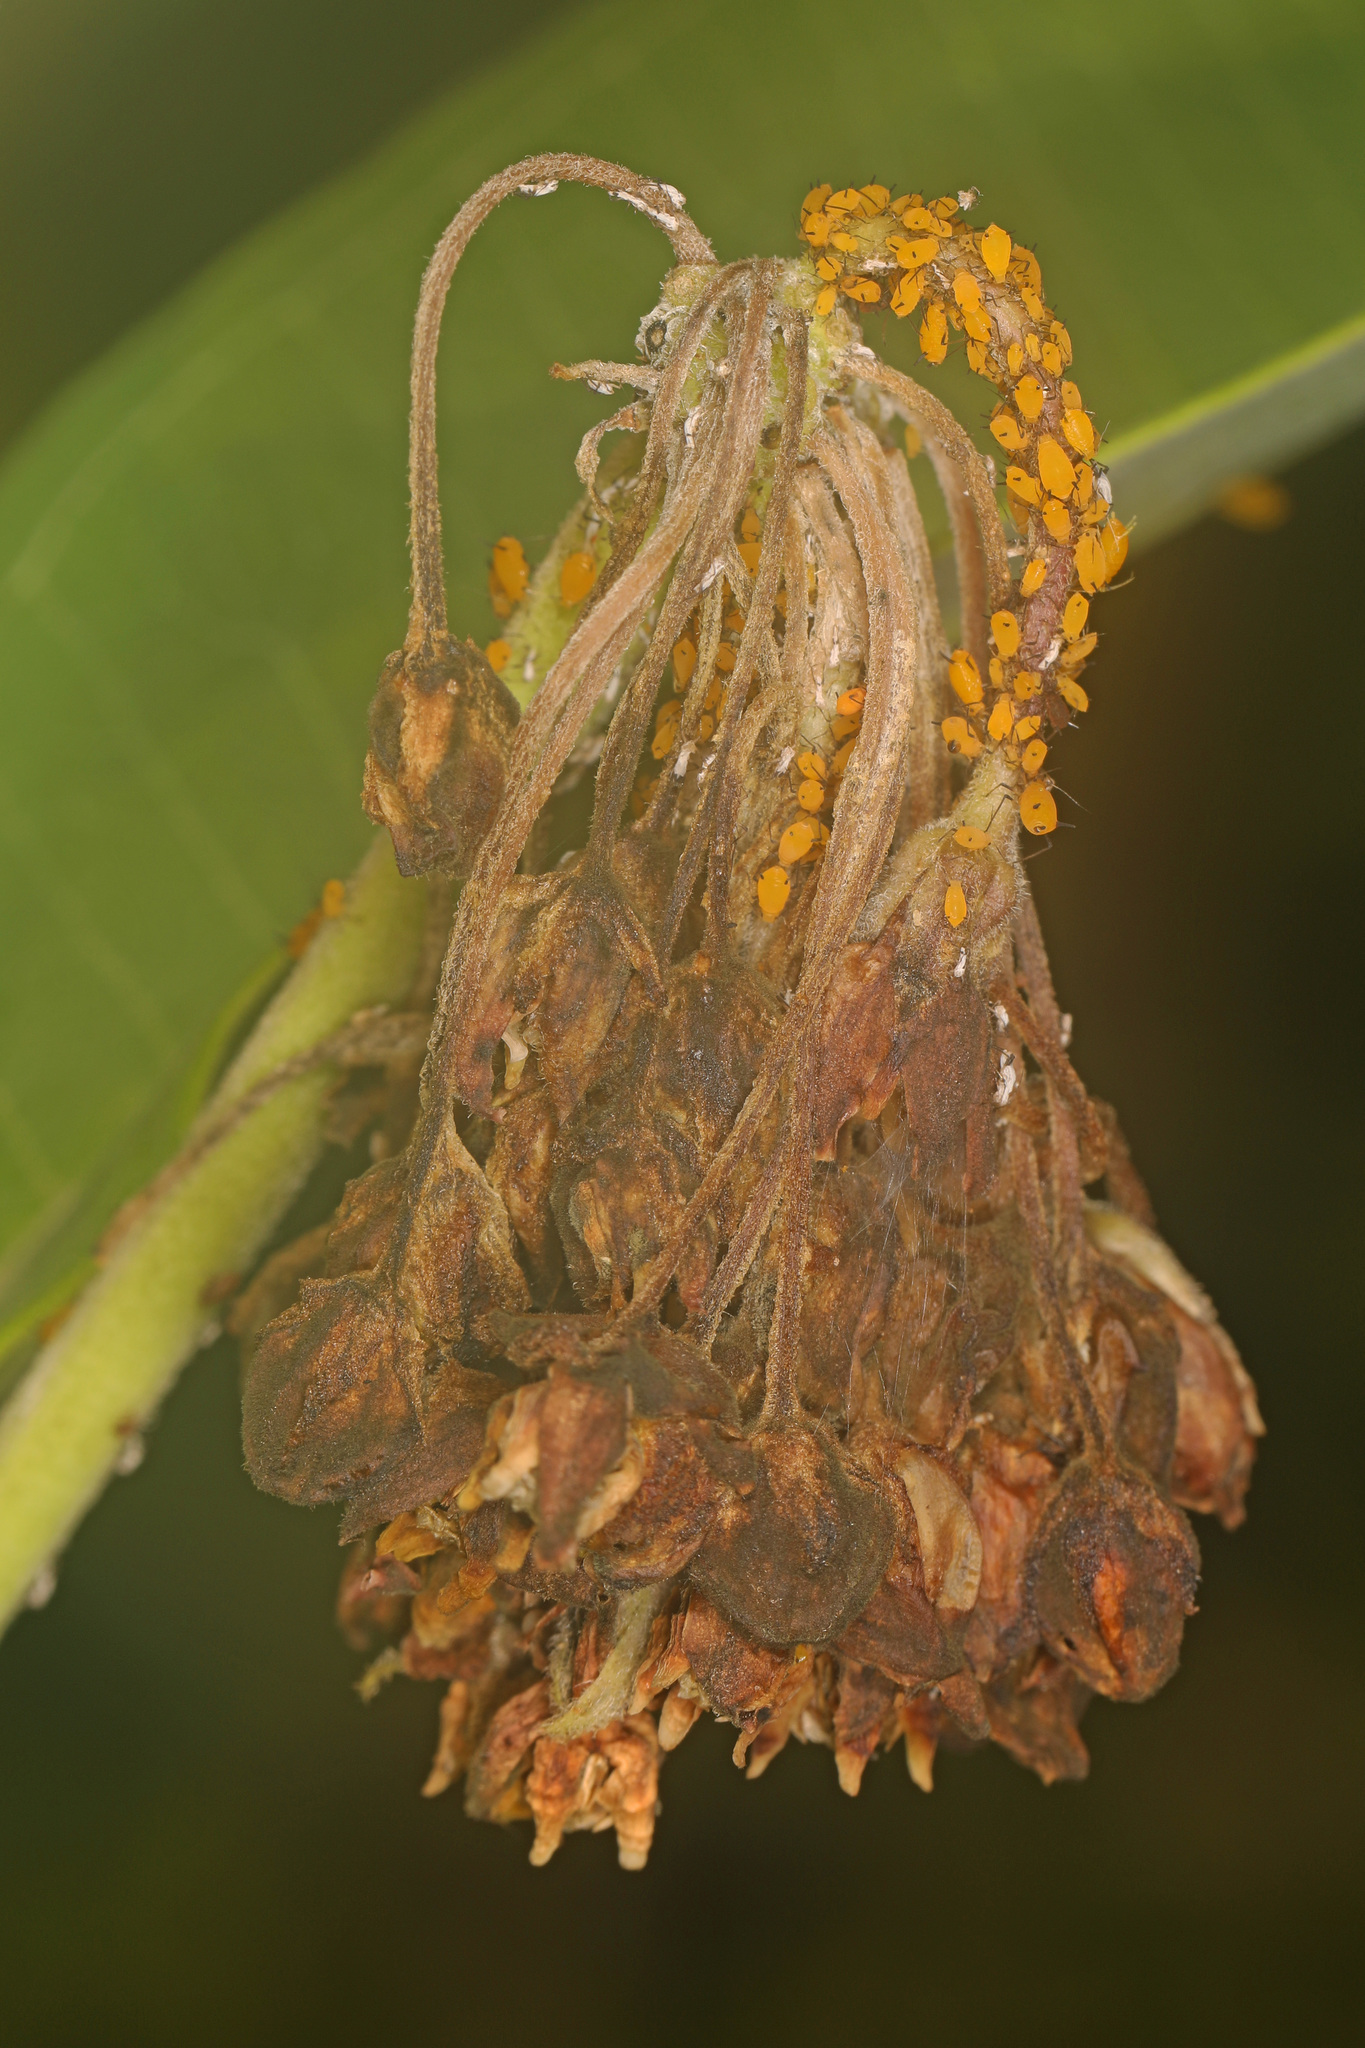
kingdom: Animalia
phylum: Arthropoda
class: Insecta
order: Hemiptera
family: Aphididae
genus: Aphis
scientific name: Aphis nerii
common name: Oleander aphid
